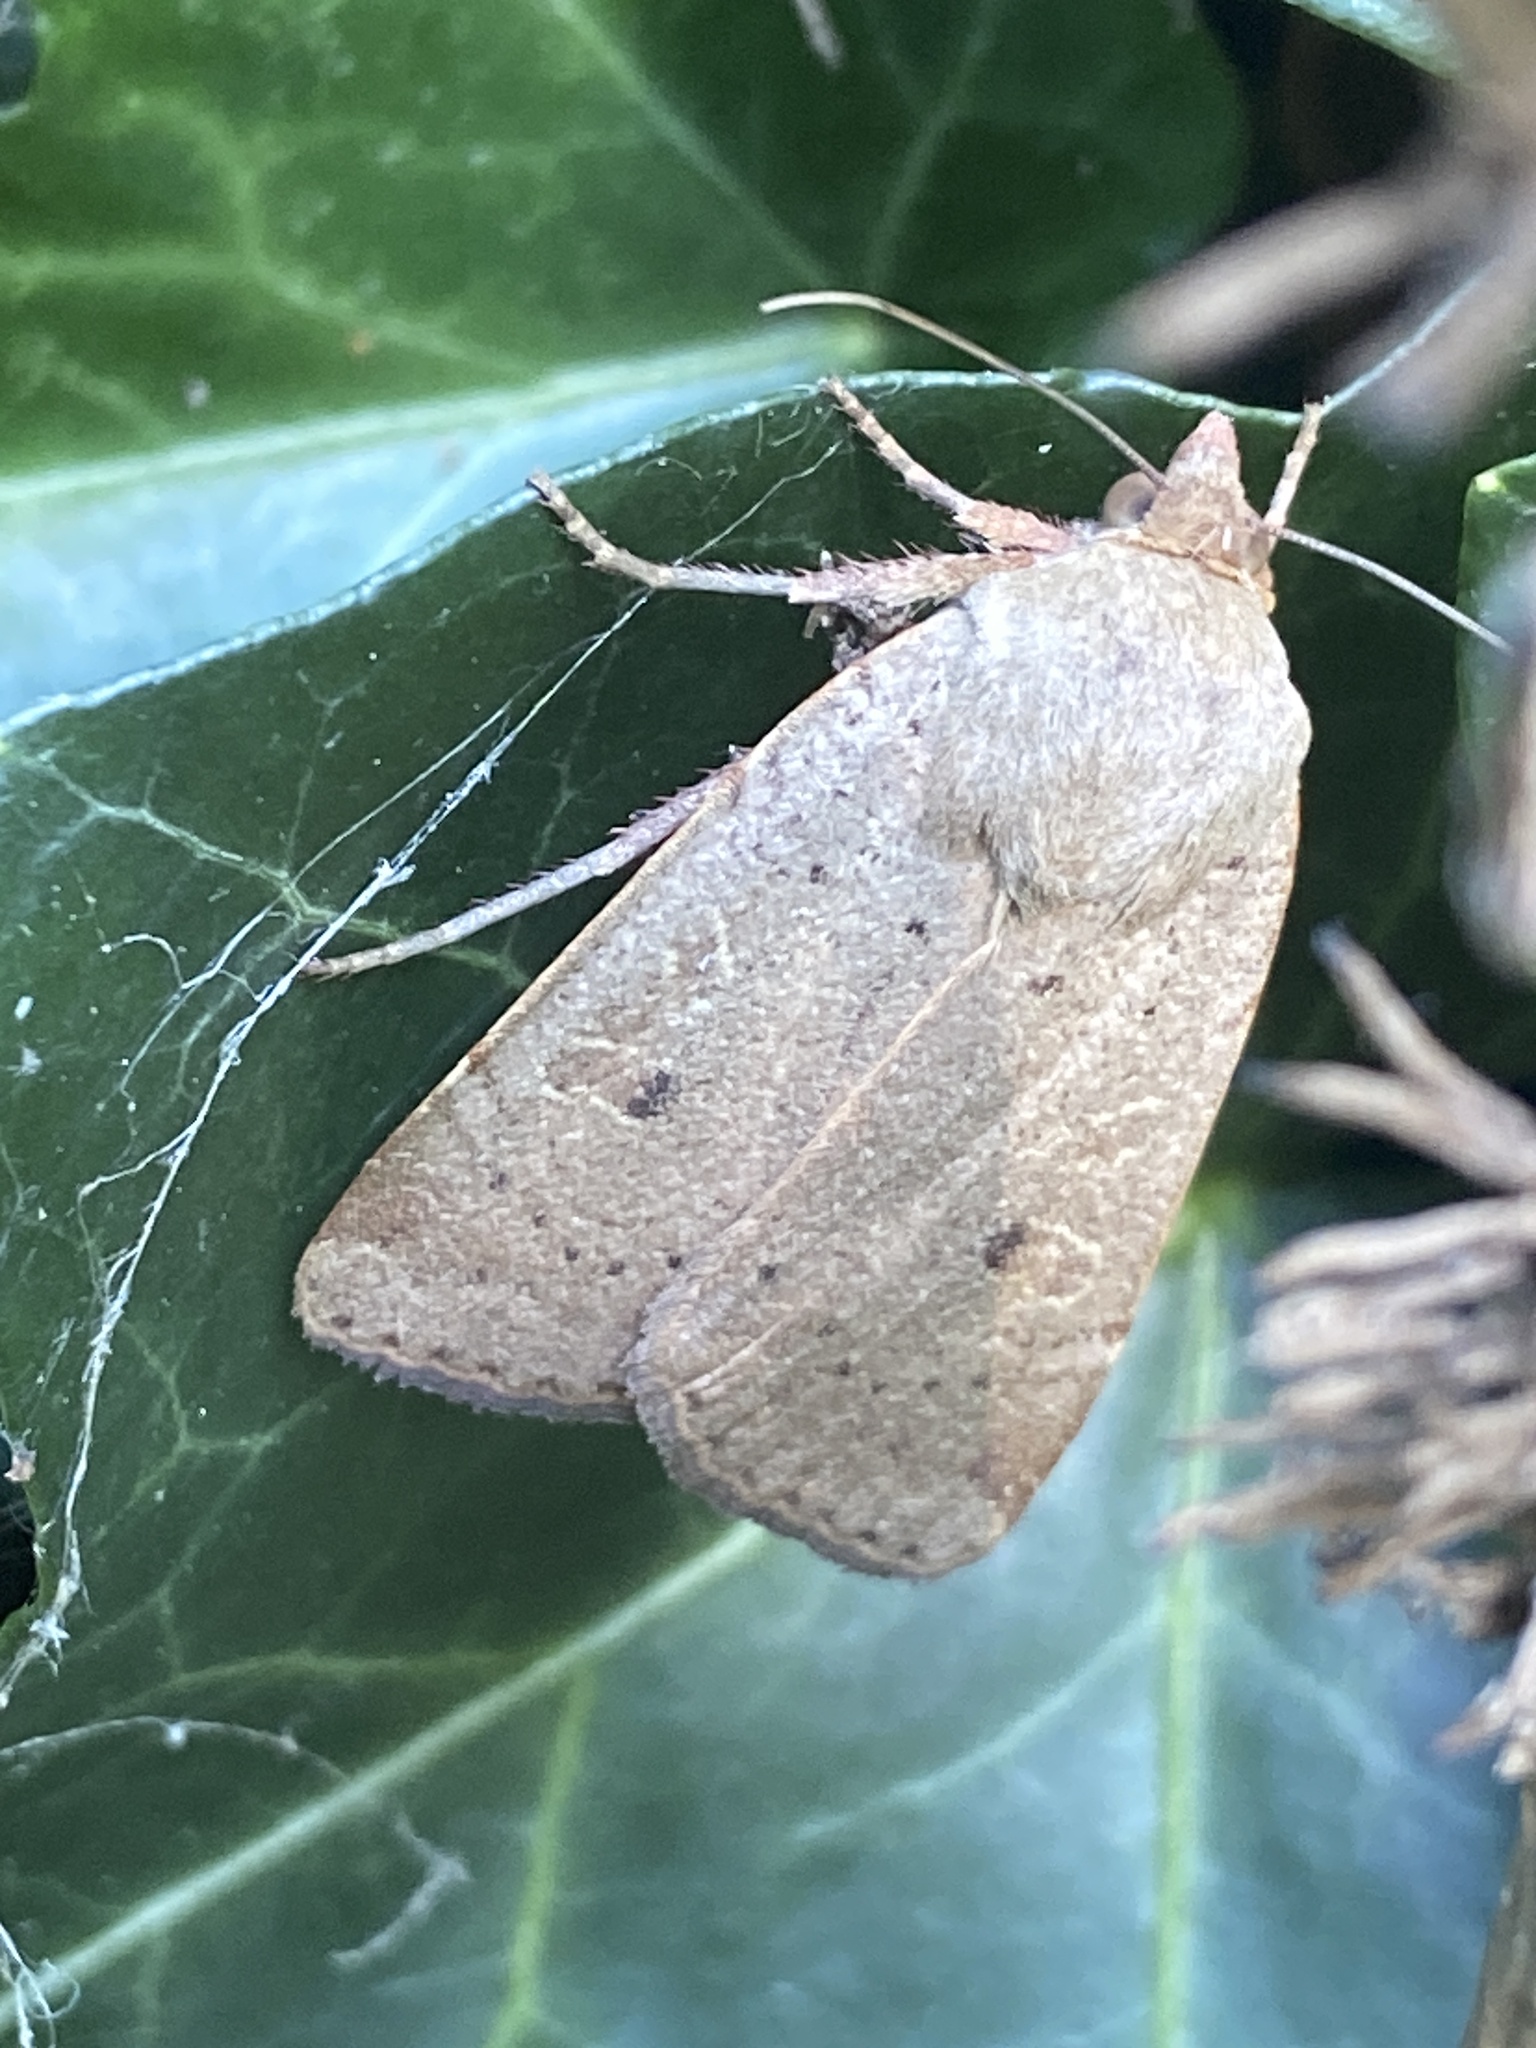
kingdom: Animalia
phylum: Arthropoda
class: Insecta
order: Lepidoptera
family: Noctuidae
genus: Noctua
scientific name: Noctua comes
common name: Lesser yellow underwing
